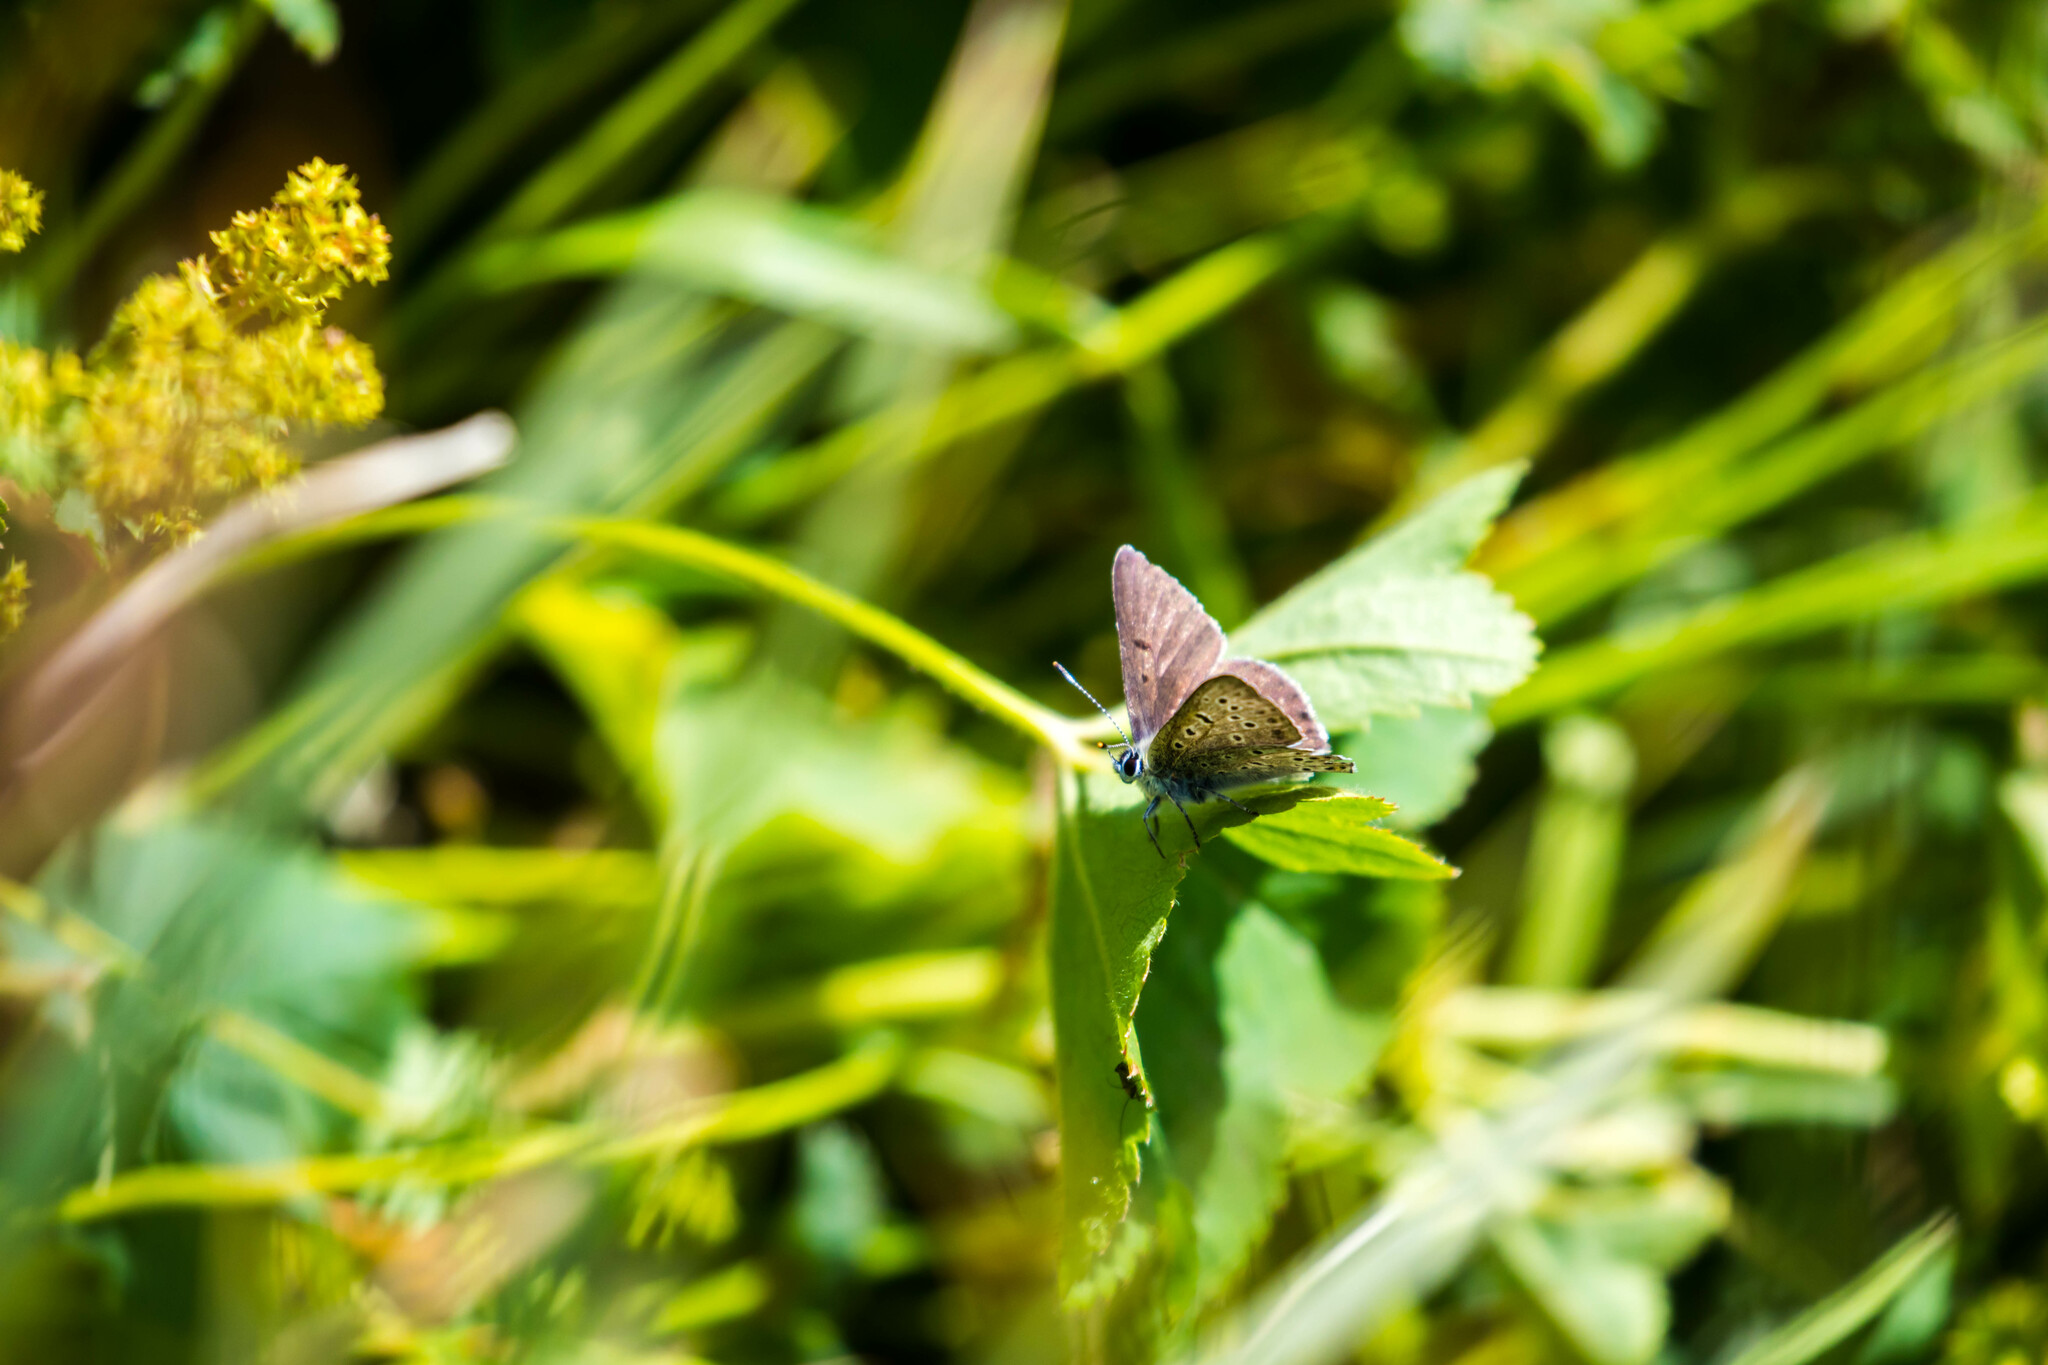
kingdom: Animalia
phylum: Arthropoda
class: Insecta
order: Lepidoptera
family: Lycaenidae
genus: Loweia
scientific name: Loweia tityrus
